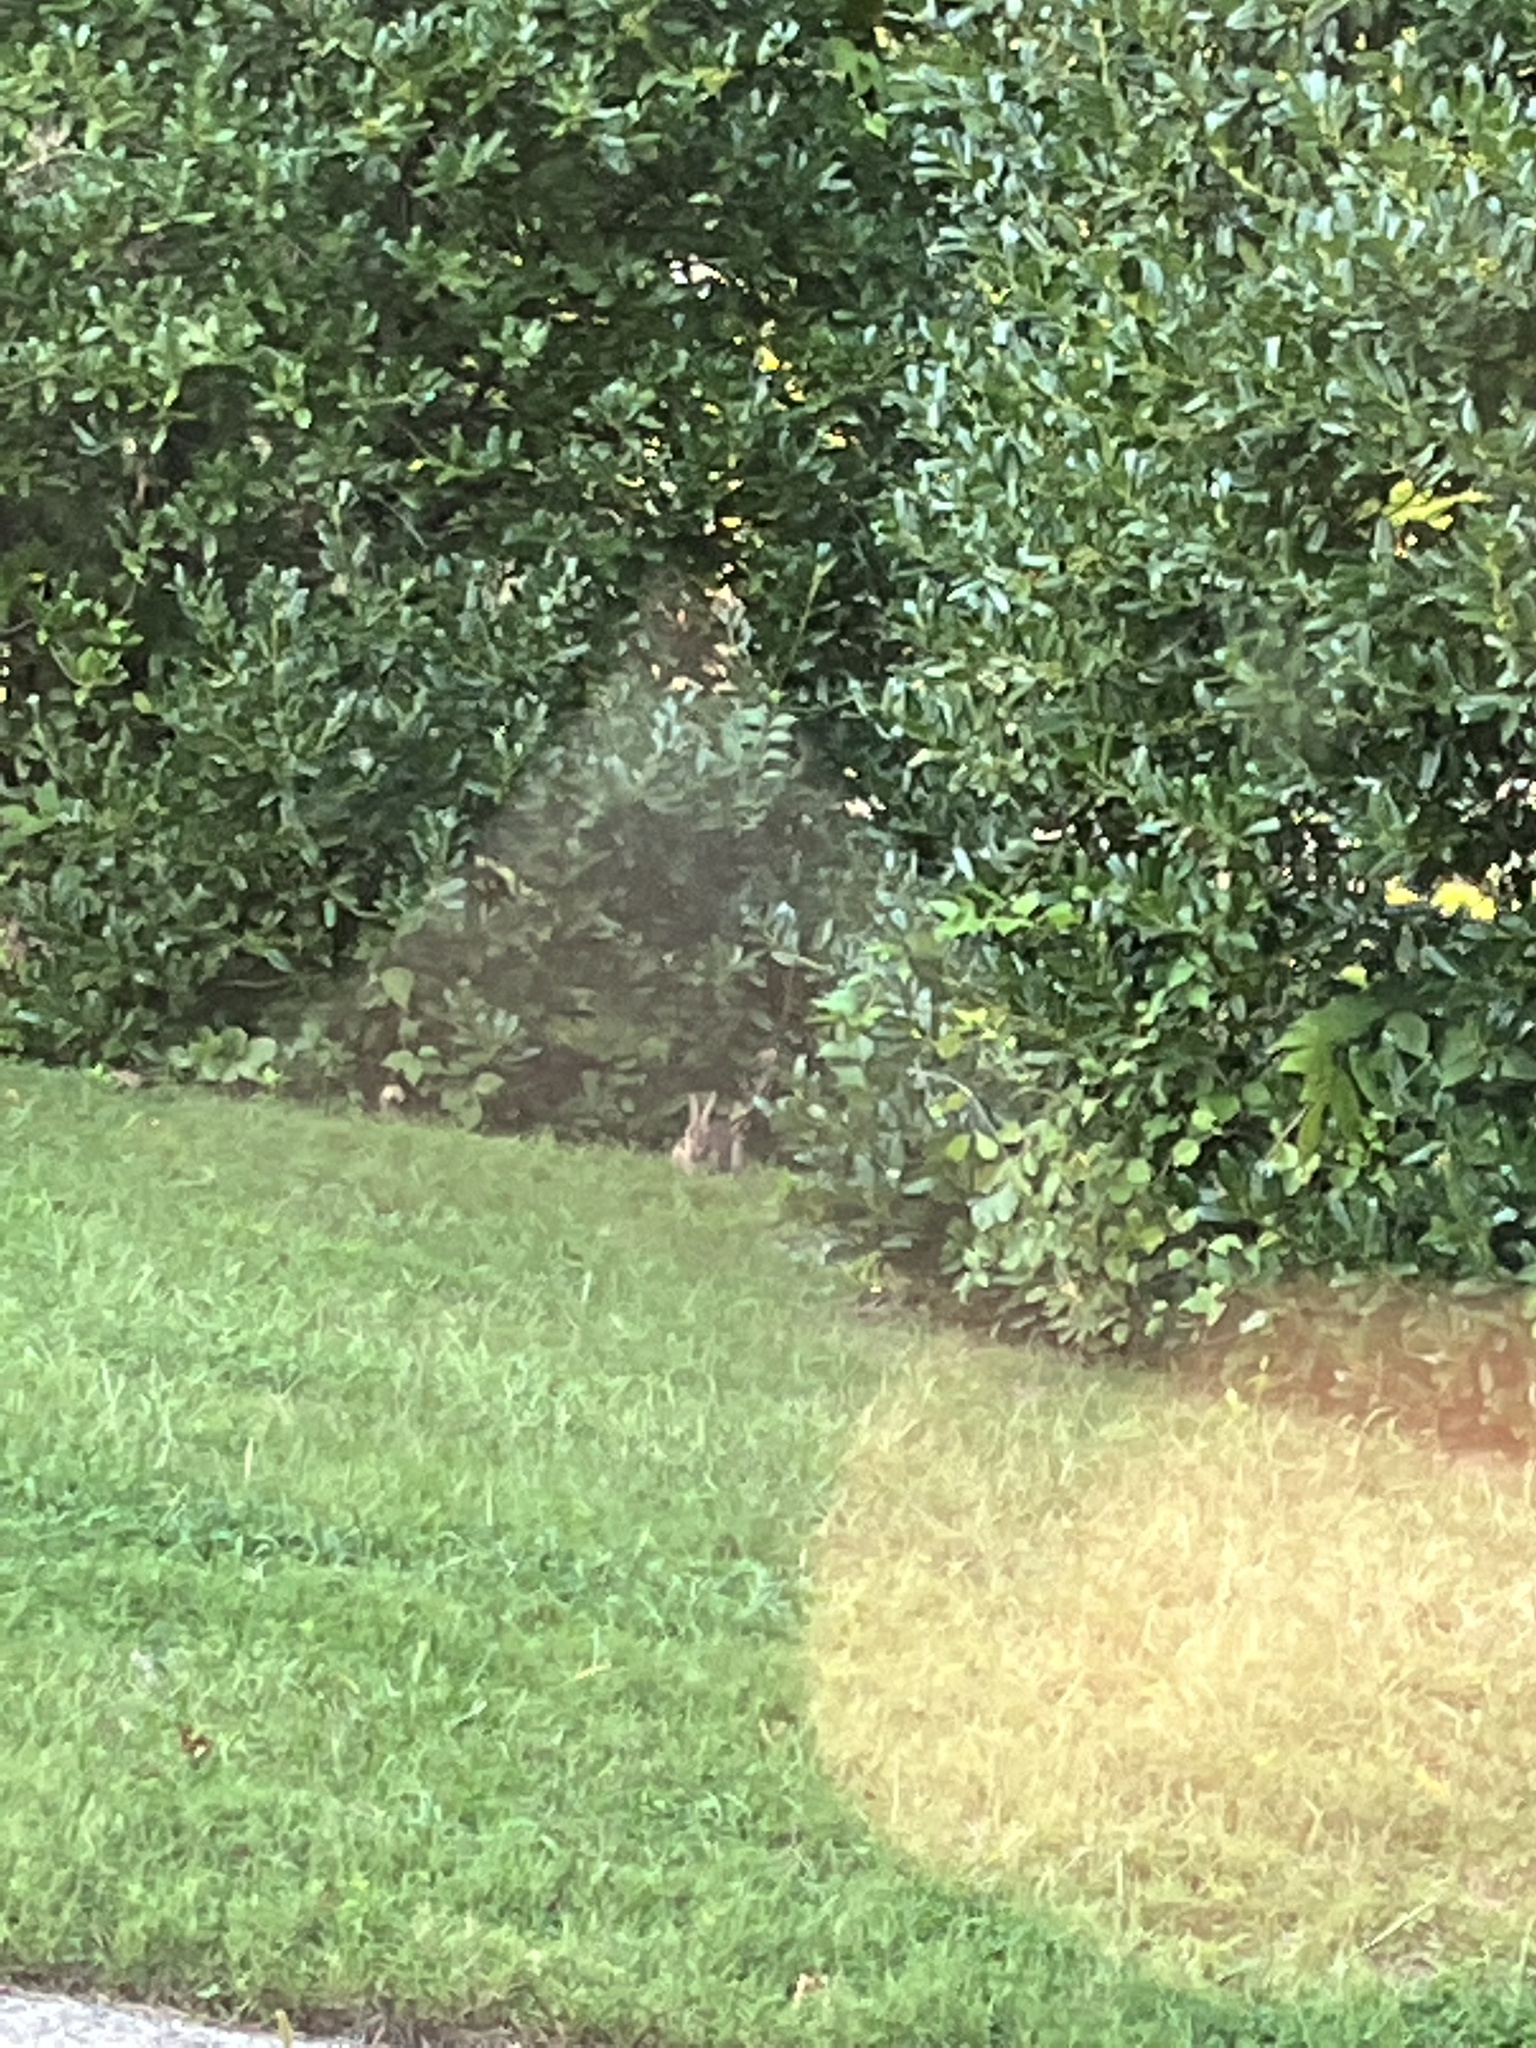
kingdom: Animalia
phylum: Chordata
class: Mammalia
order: Lagomorpha
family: Leporidae
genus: Sylvilagus
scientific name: Sylvilagus floridanus
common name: Eastern cottontail
